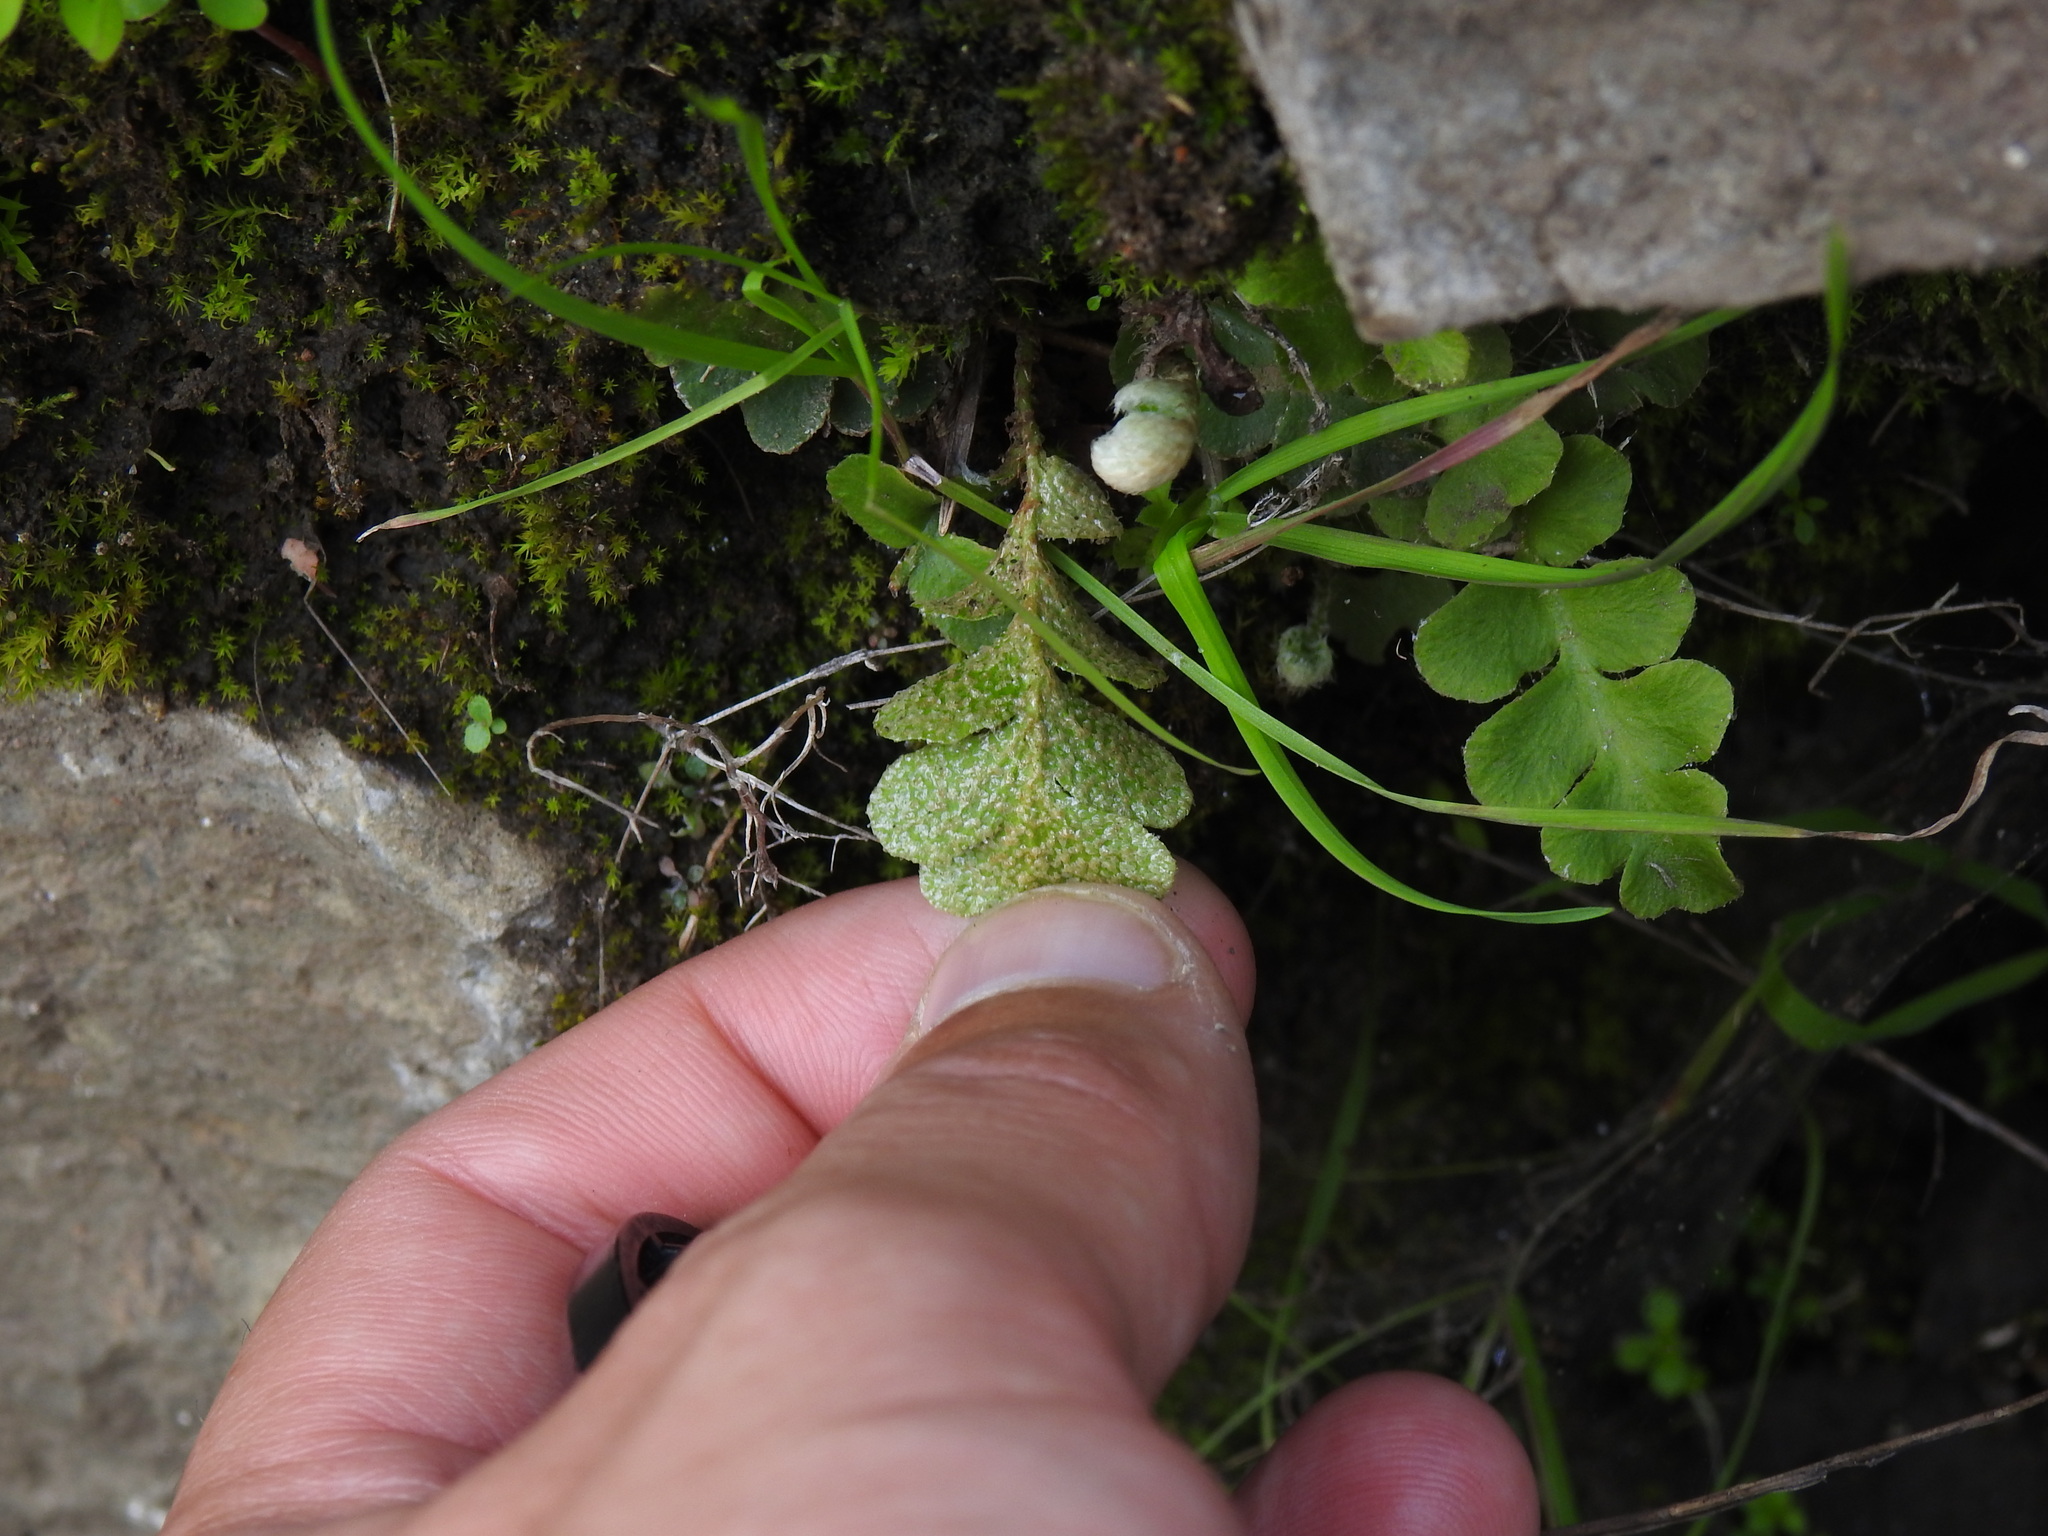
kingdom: Plantae
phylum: Tracheophyta
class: Polypodiopsida
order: Polypodiales
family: Aspleniaceae
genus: Asplenium
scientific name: Asplenium ceterach
